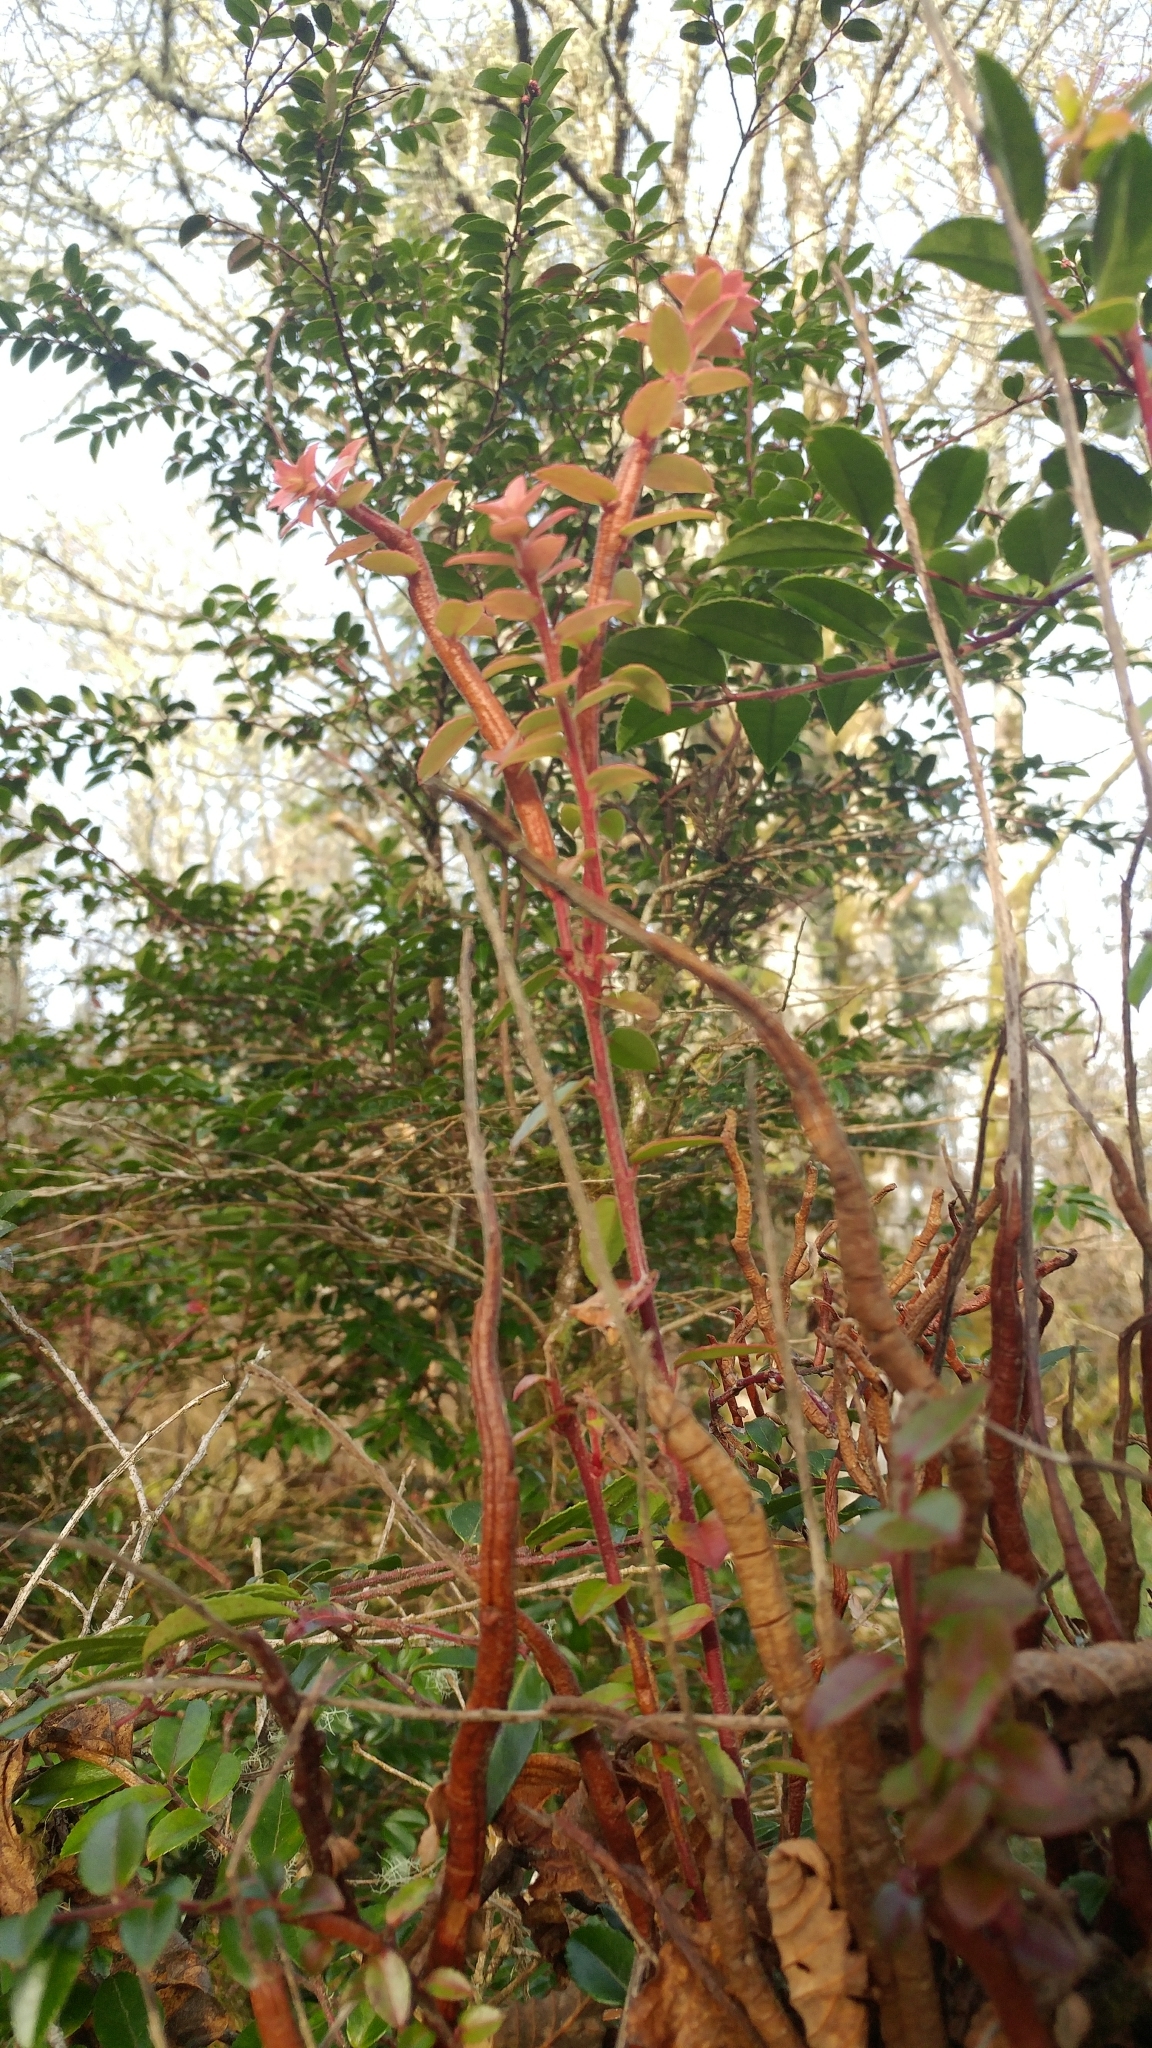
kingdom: Plantae
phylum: Tracheophyta
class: Magnoliopsida
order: Ericales
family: Ericaceae
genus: Vaccinium
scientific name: Vaccinium ovatum
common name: California-huckleberry
